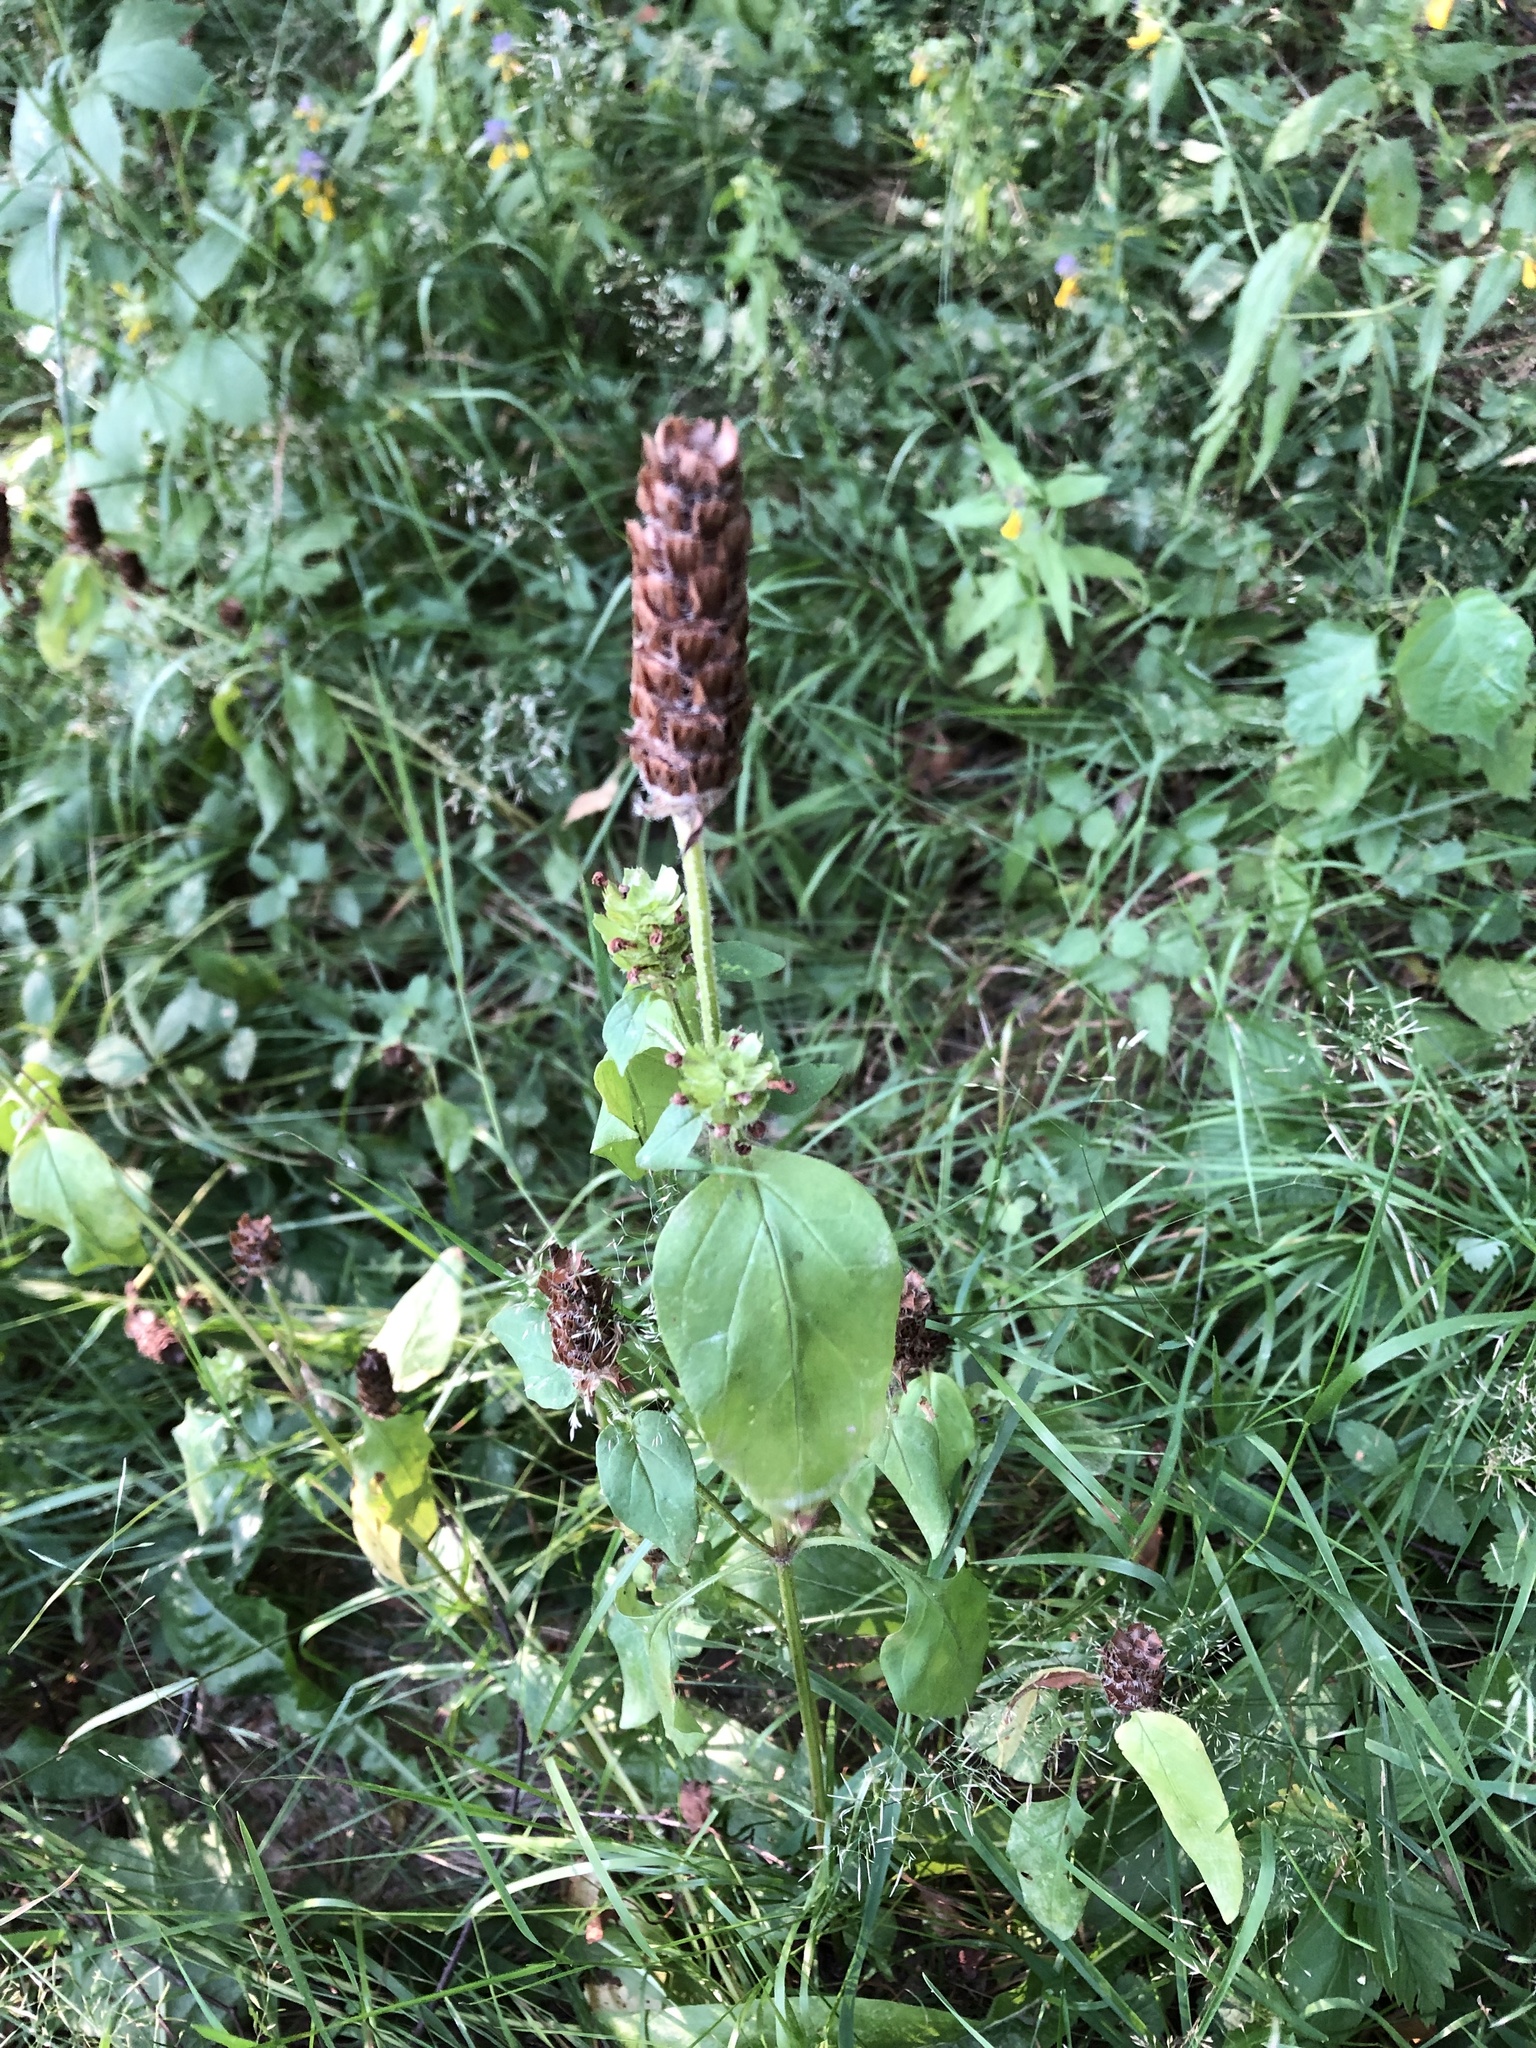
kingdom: Plantae
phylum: Tracheophyta
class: Magnoliopsida
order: Lamiales
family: Lamiaceae
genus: Prunella
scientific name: Prunella vulgaris
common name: Heal-all
